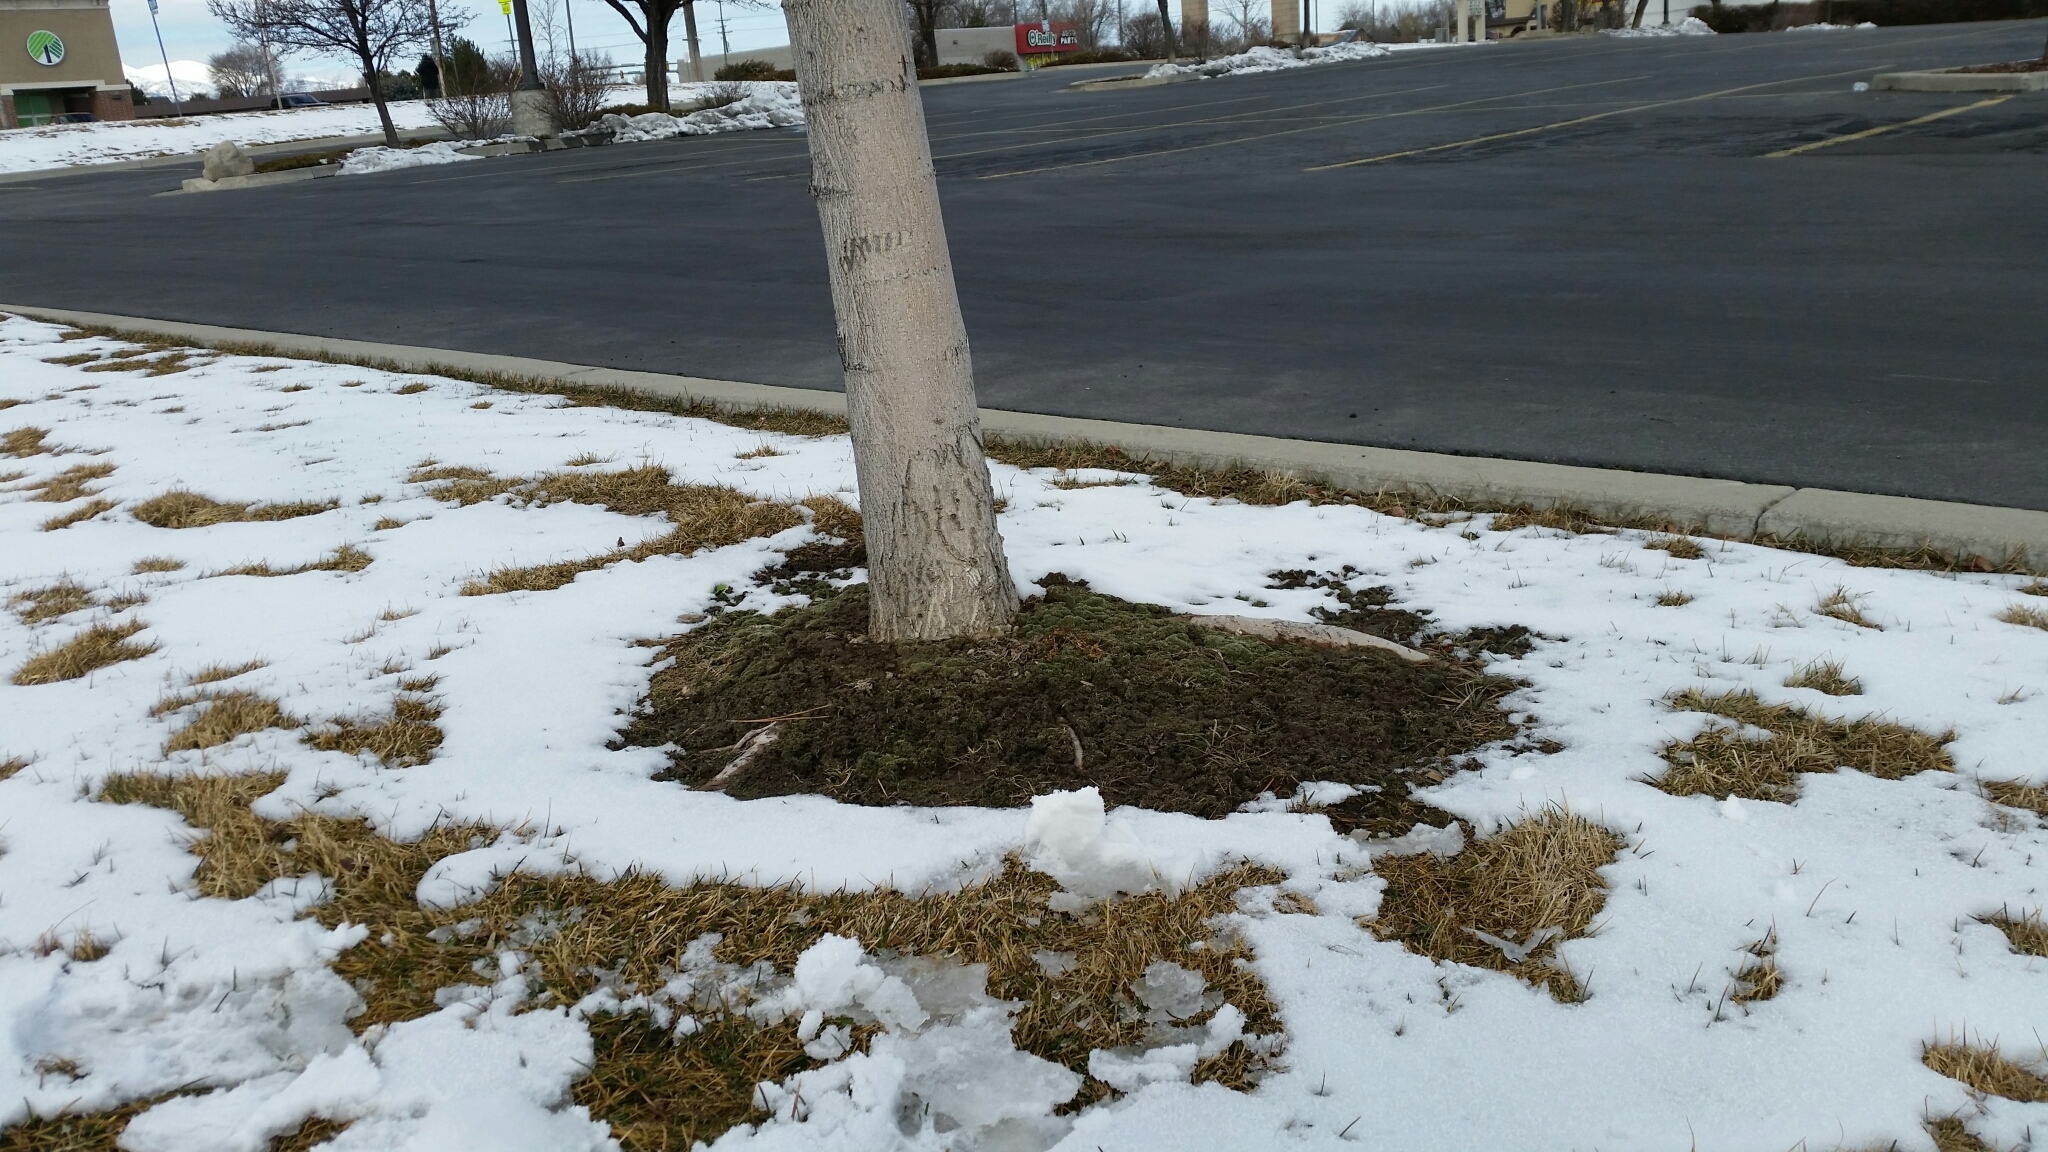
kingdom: Plantae
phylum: Bryophyta
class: Bryopsida
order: Bryales
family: Bryaceae
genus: Bryum
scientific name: Bryum argenteum
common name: Silver-moss
